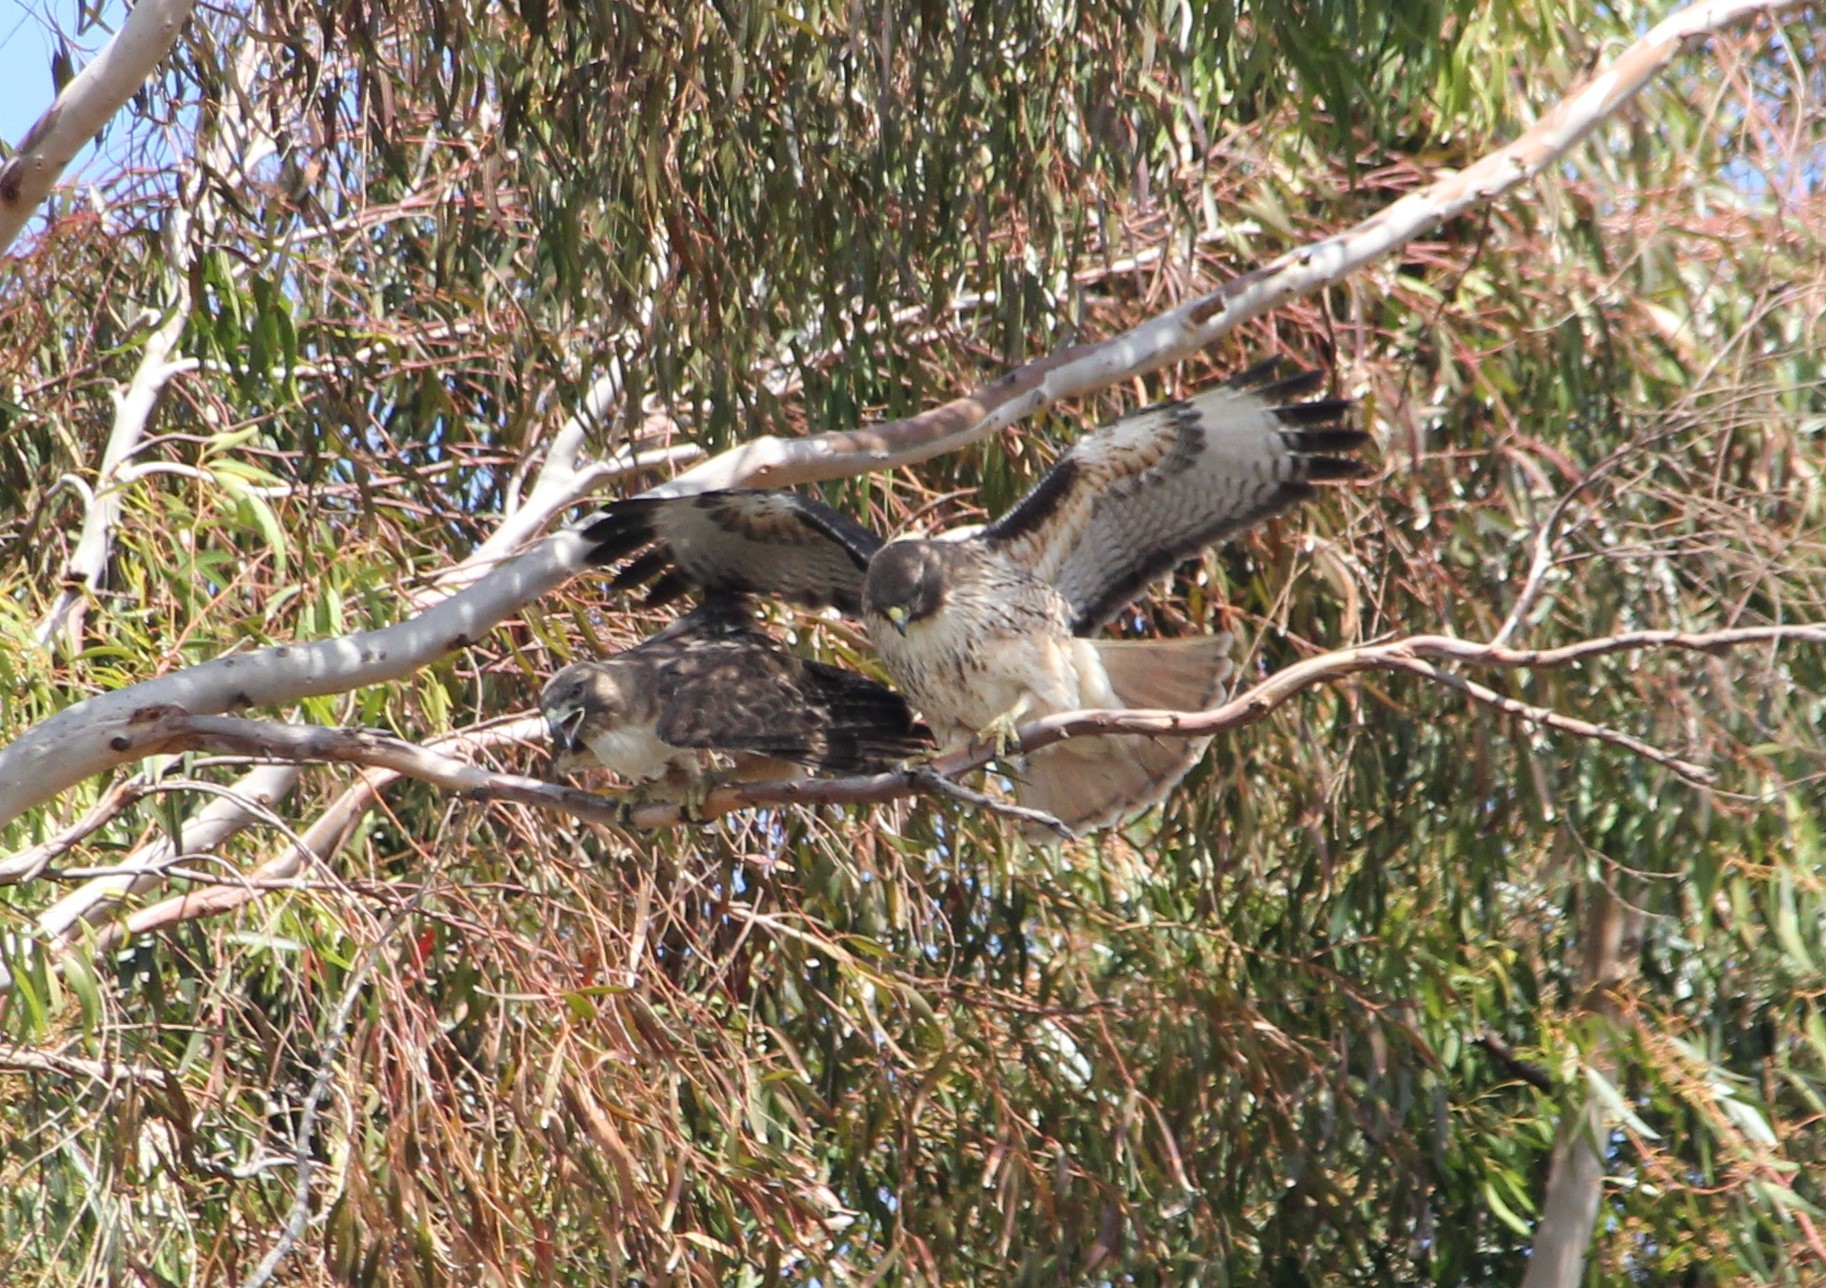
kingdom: Animalia
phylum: Chordata
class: Aves
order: Accipitriformes
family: Accipitridae
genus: Buteo
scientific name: Buteo jamaicensis
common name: Red-tailed hawk
